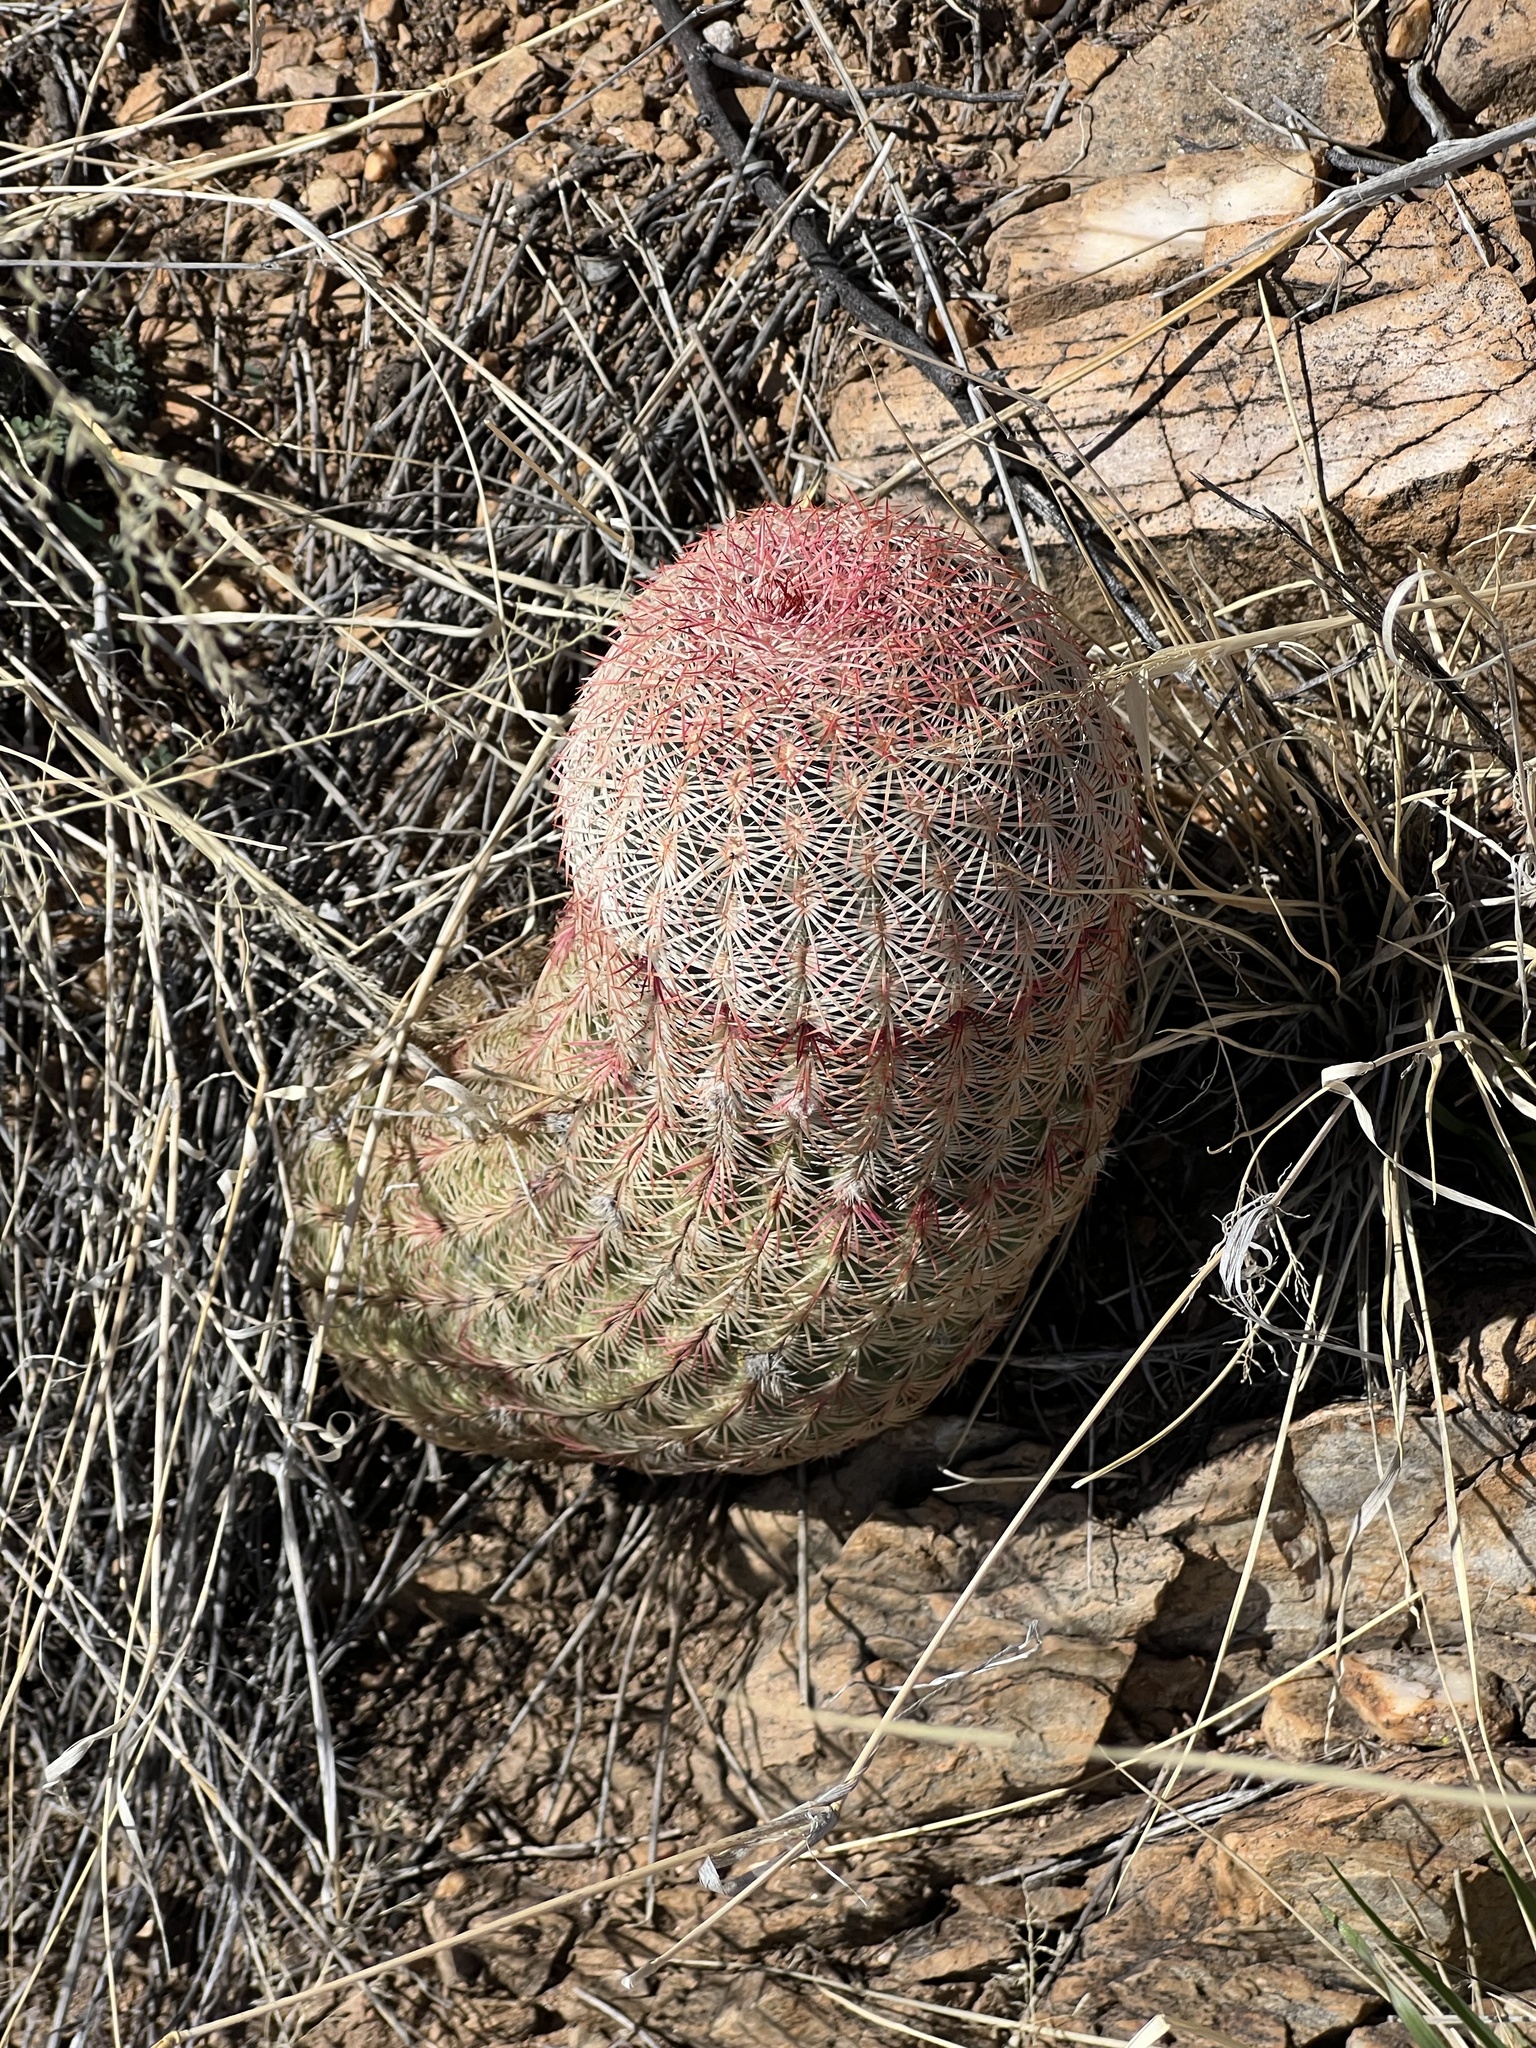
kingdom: Plantae
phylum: Tracheophyta
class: Magnoliopsida
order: Caryophyllales
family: Cactaceae
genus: Echinocereus
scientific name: Echinocereus rigidissimus
